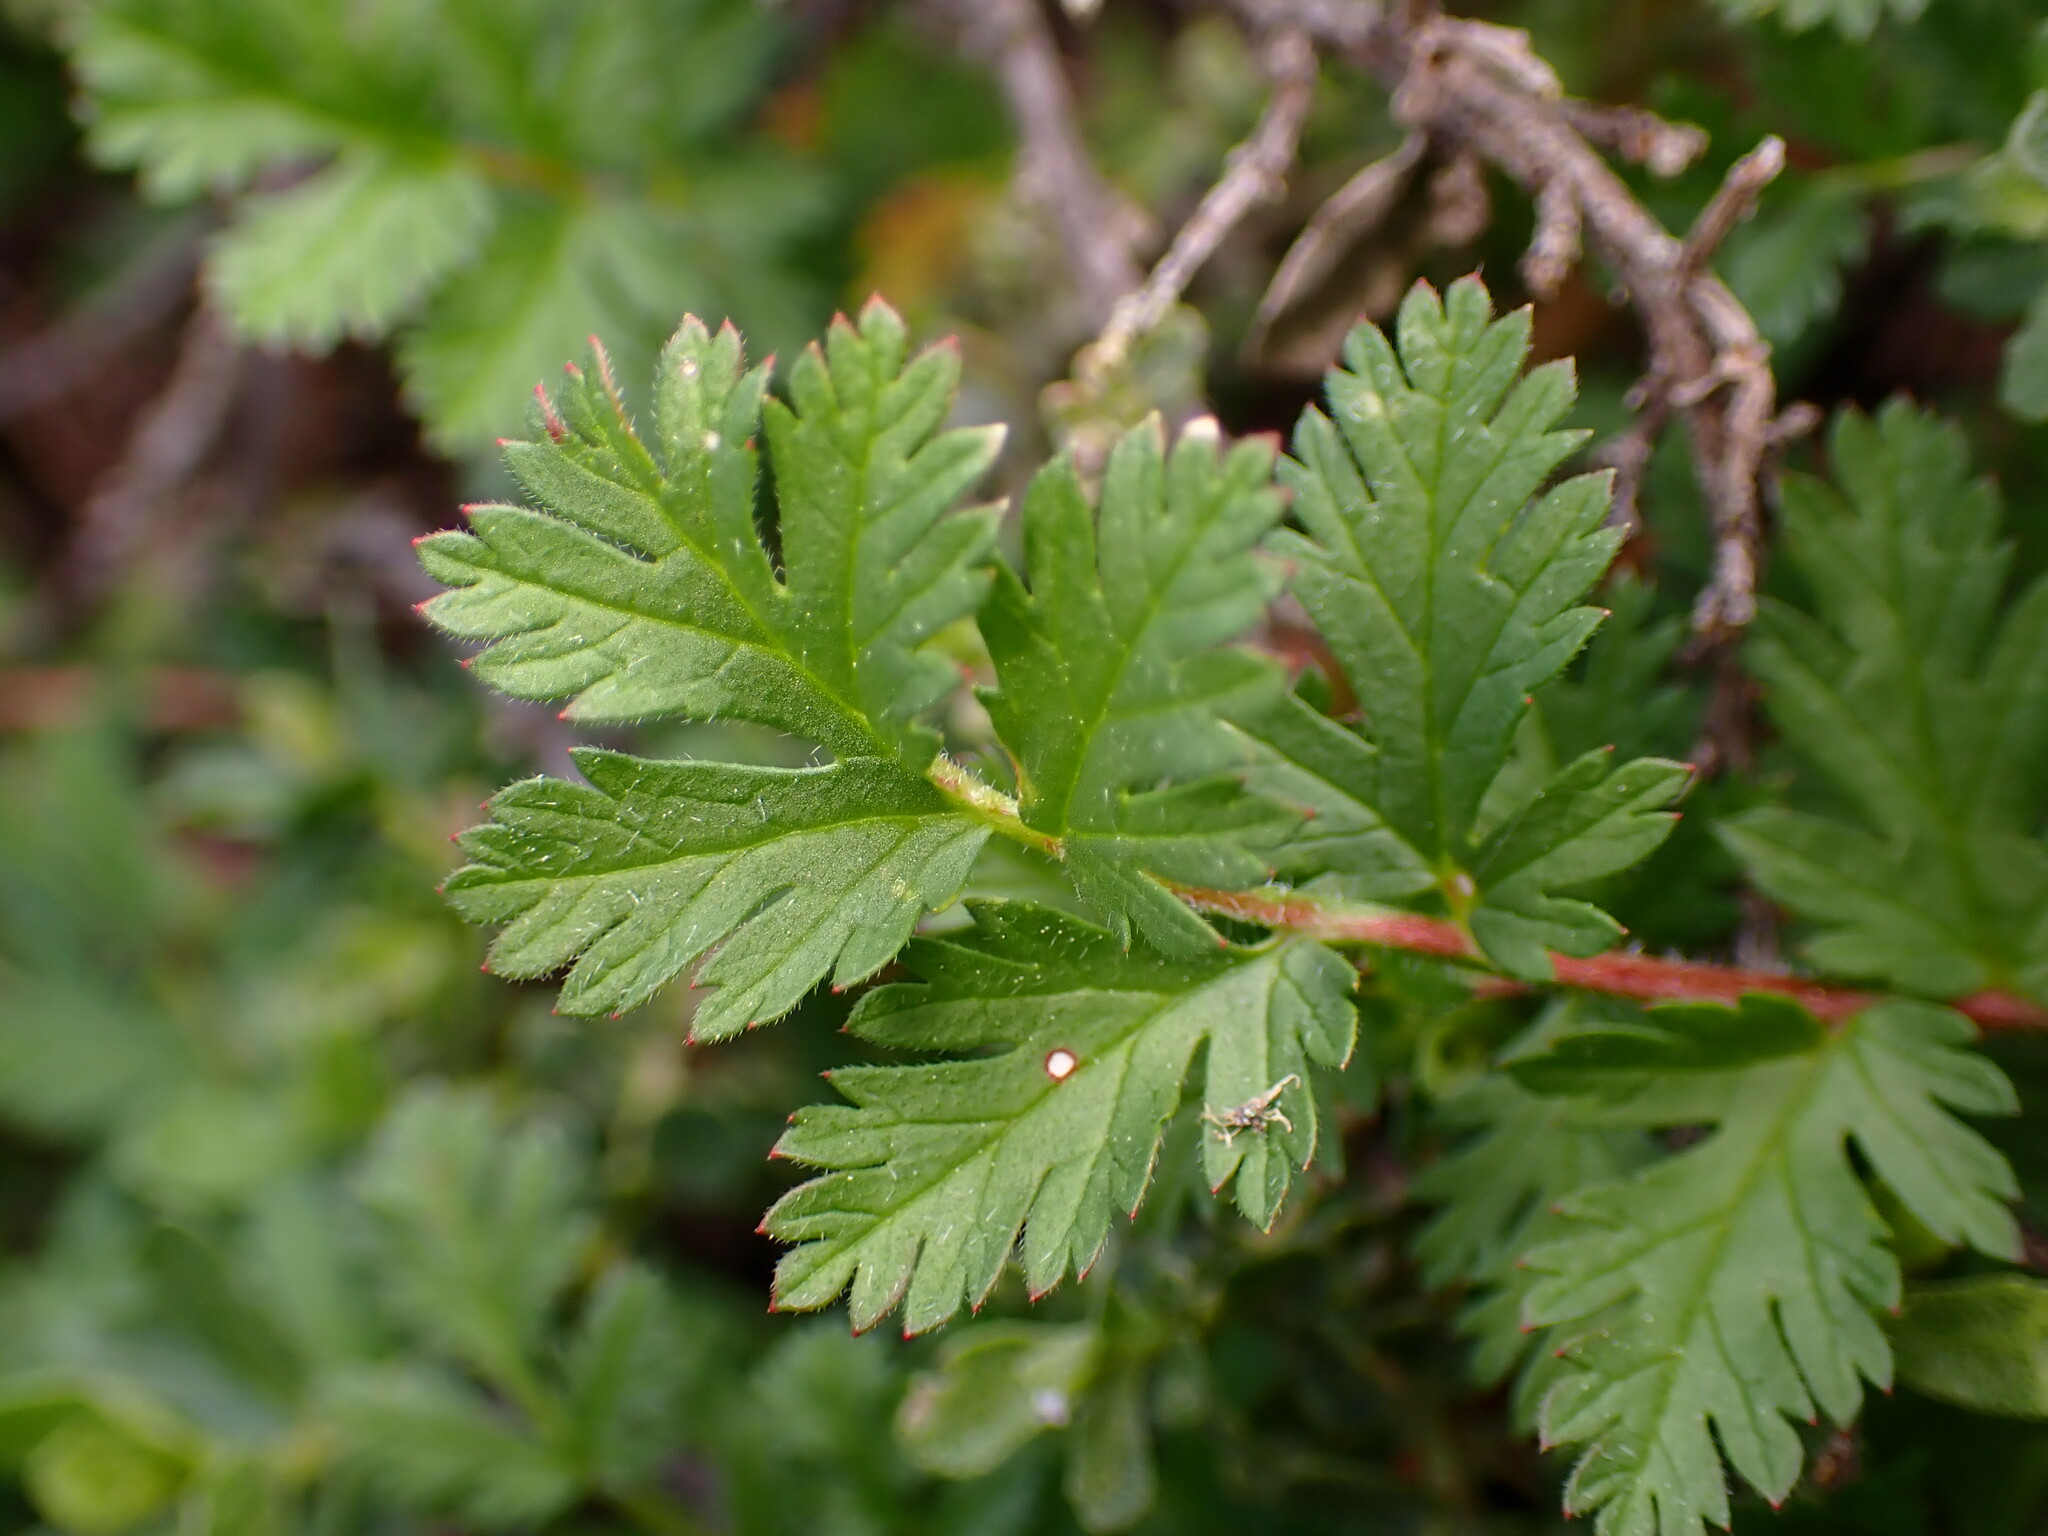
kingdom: Plantae
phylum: Tracheophyta
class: Magnoliopsida
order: Geraniales
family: Geraniaceae
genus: Erodium
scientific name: Erodium cicutarium
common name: Common stork's-bill
